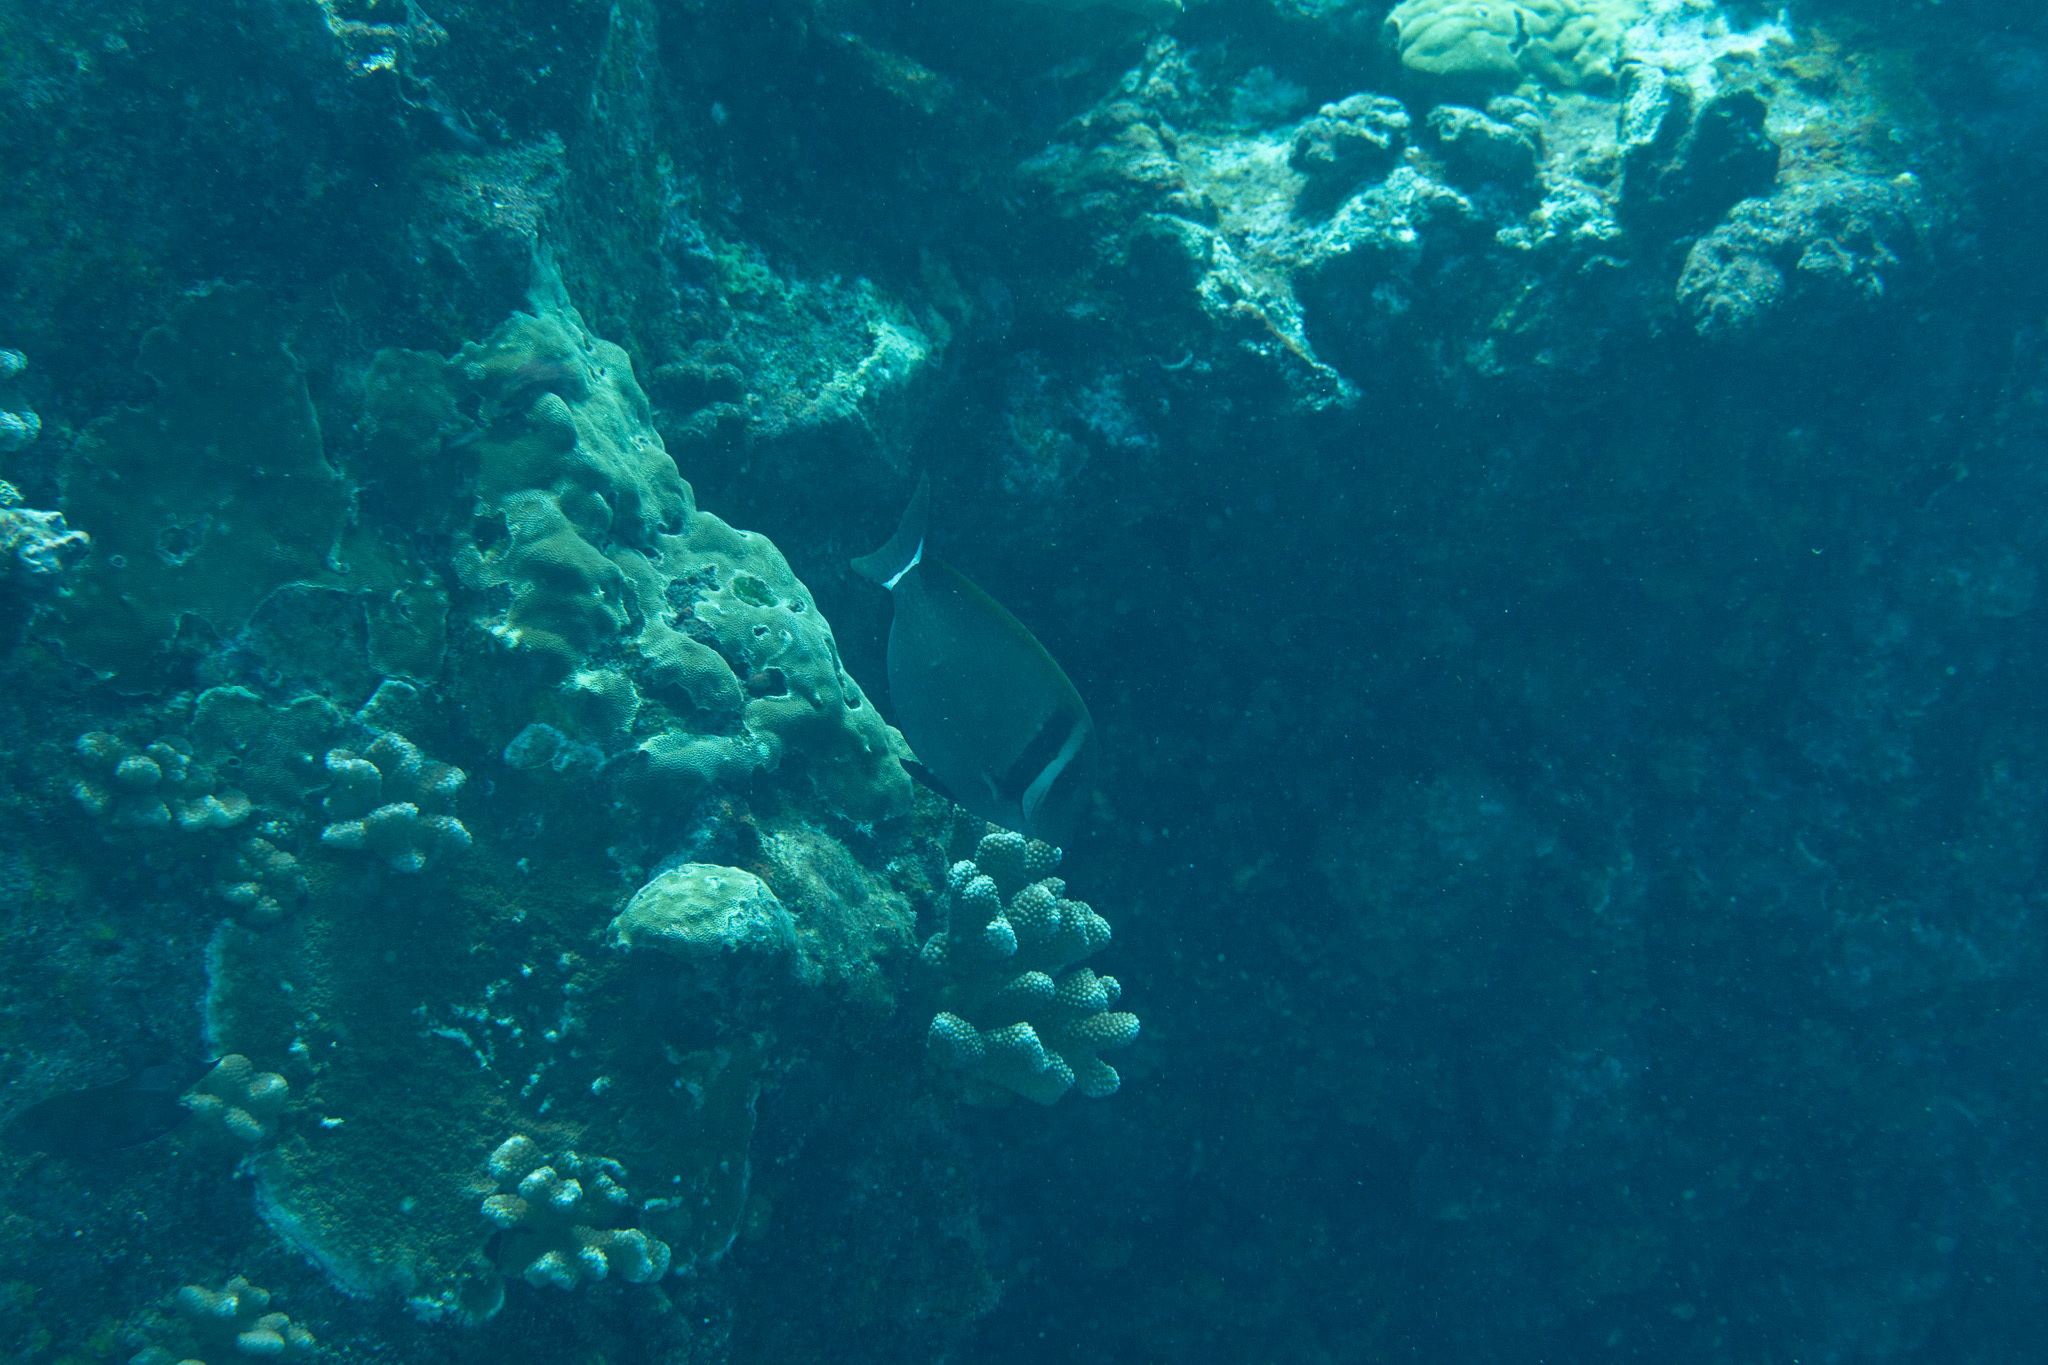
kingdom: Animalia
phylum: Chordata
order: Perciformes
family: Acanthuridae
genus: Acanthurus
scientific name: Acanthurus leucopareius
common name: Head-band surgeonfish
